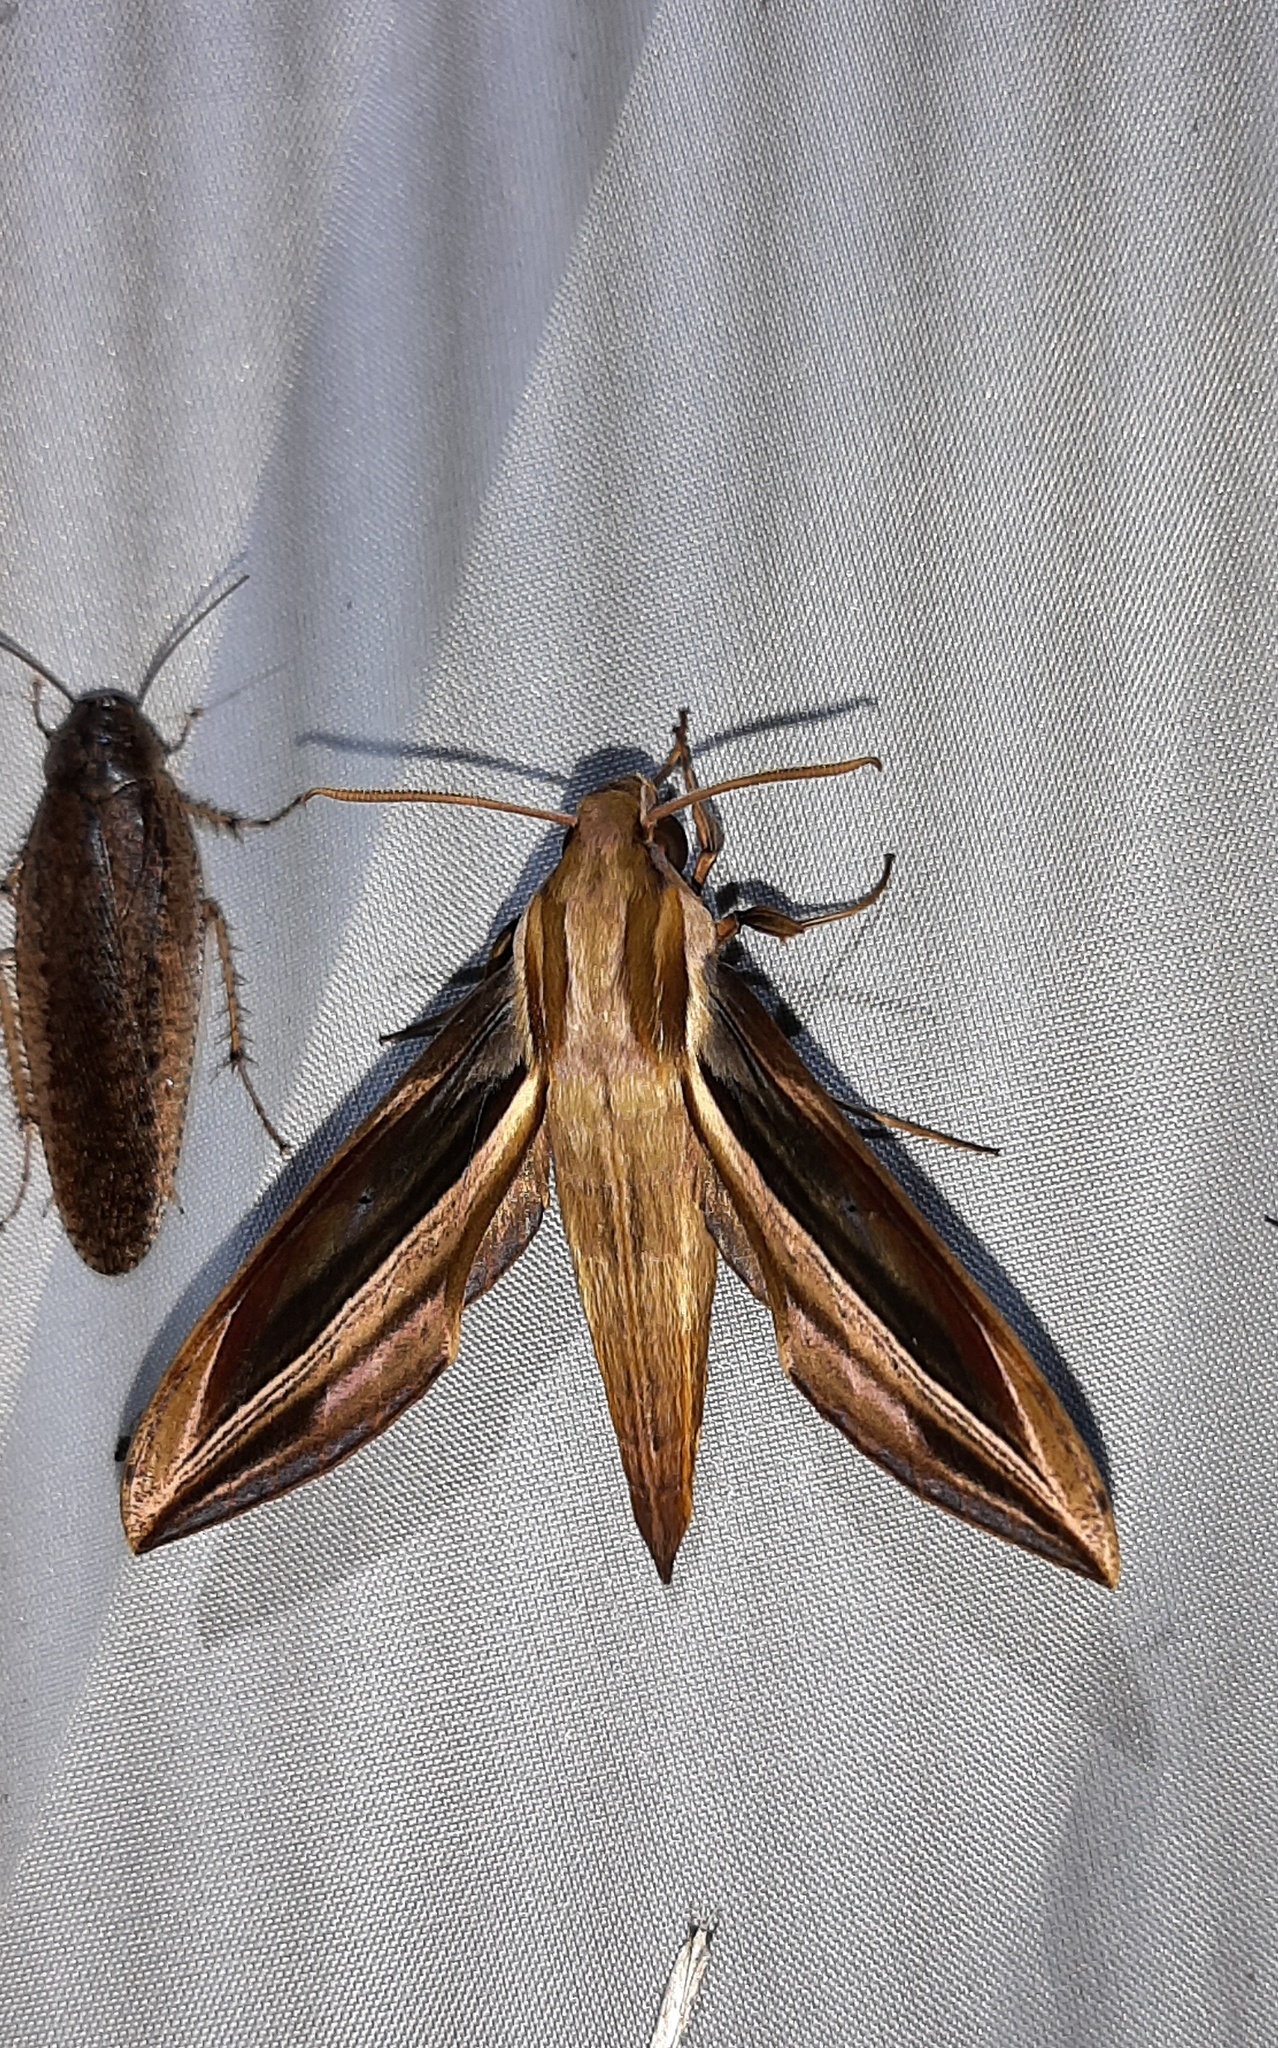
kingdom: Animalia
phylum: Arthropoda
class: Insecta
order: Lepidoptera
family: Sphingidae
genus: Xylophanes
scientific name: Xylophanes pyrrhus
